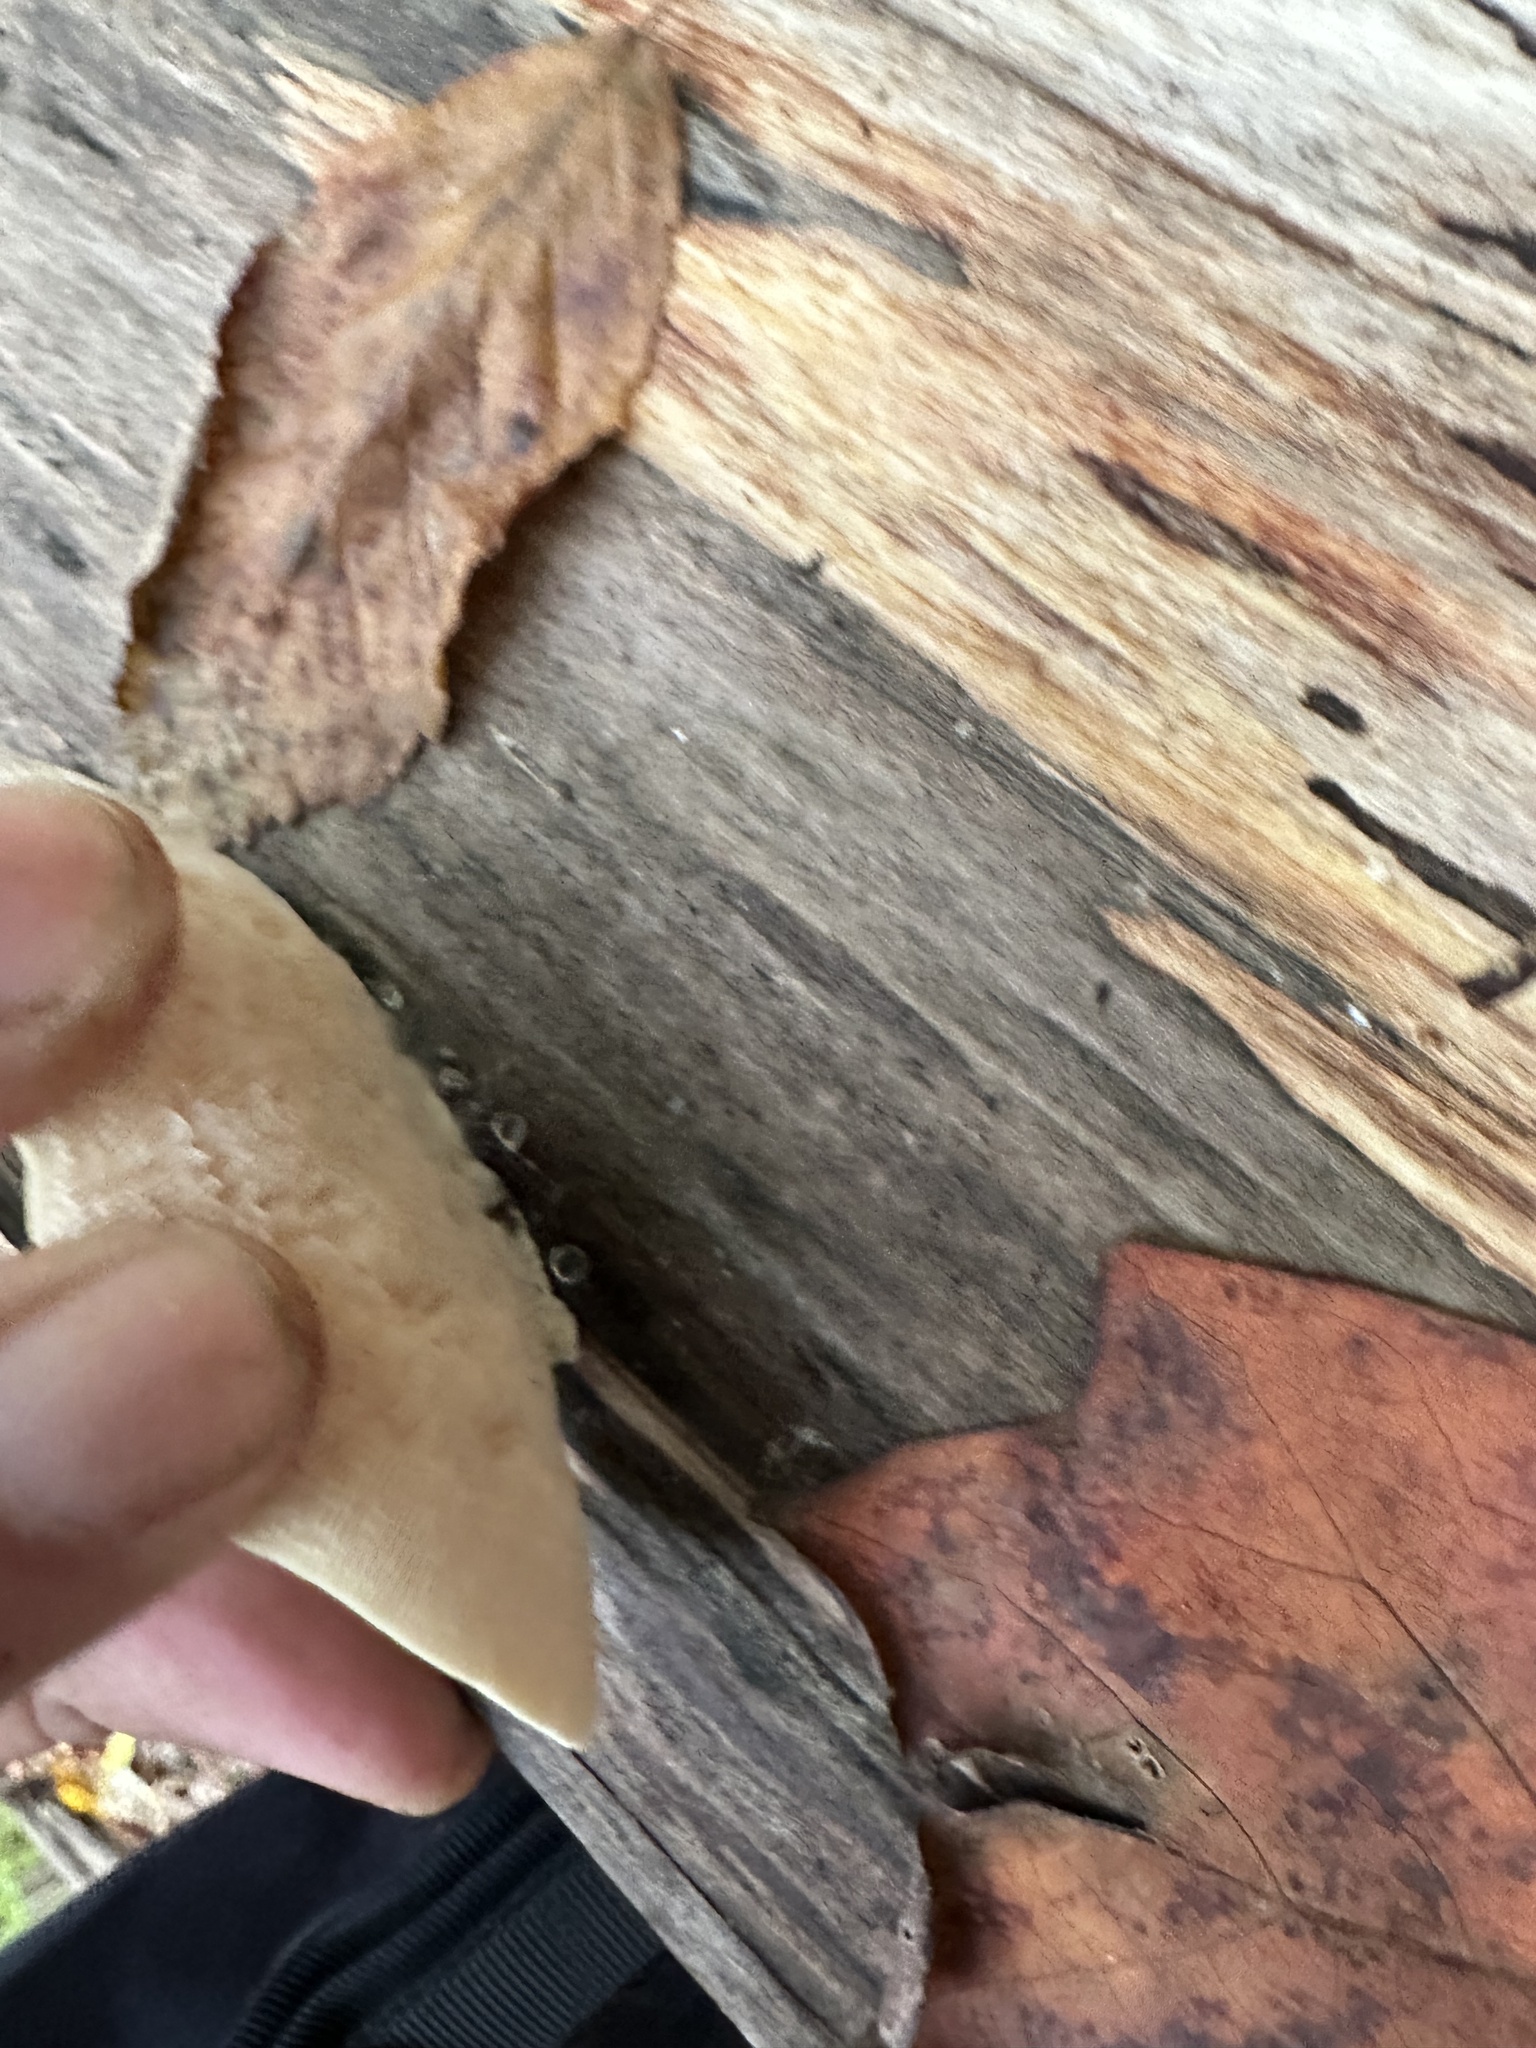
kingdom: Fungi
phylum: Basidiomycota
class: Agaricomycetes
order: Polyporales
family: Polyporaceae
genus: Trametes
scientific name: Trametes gibbosa
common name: Lumpy bracket
